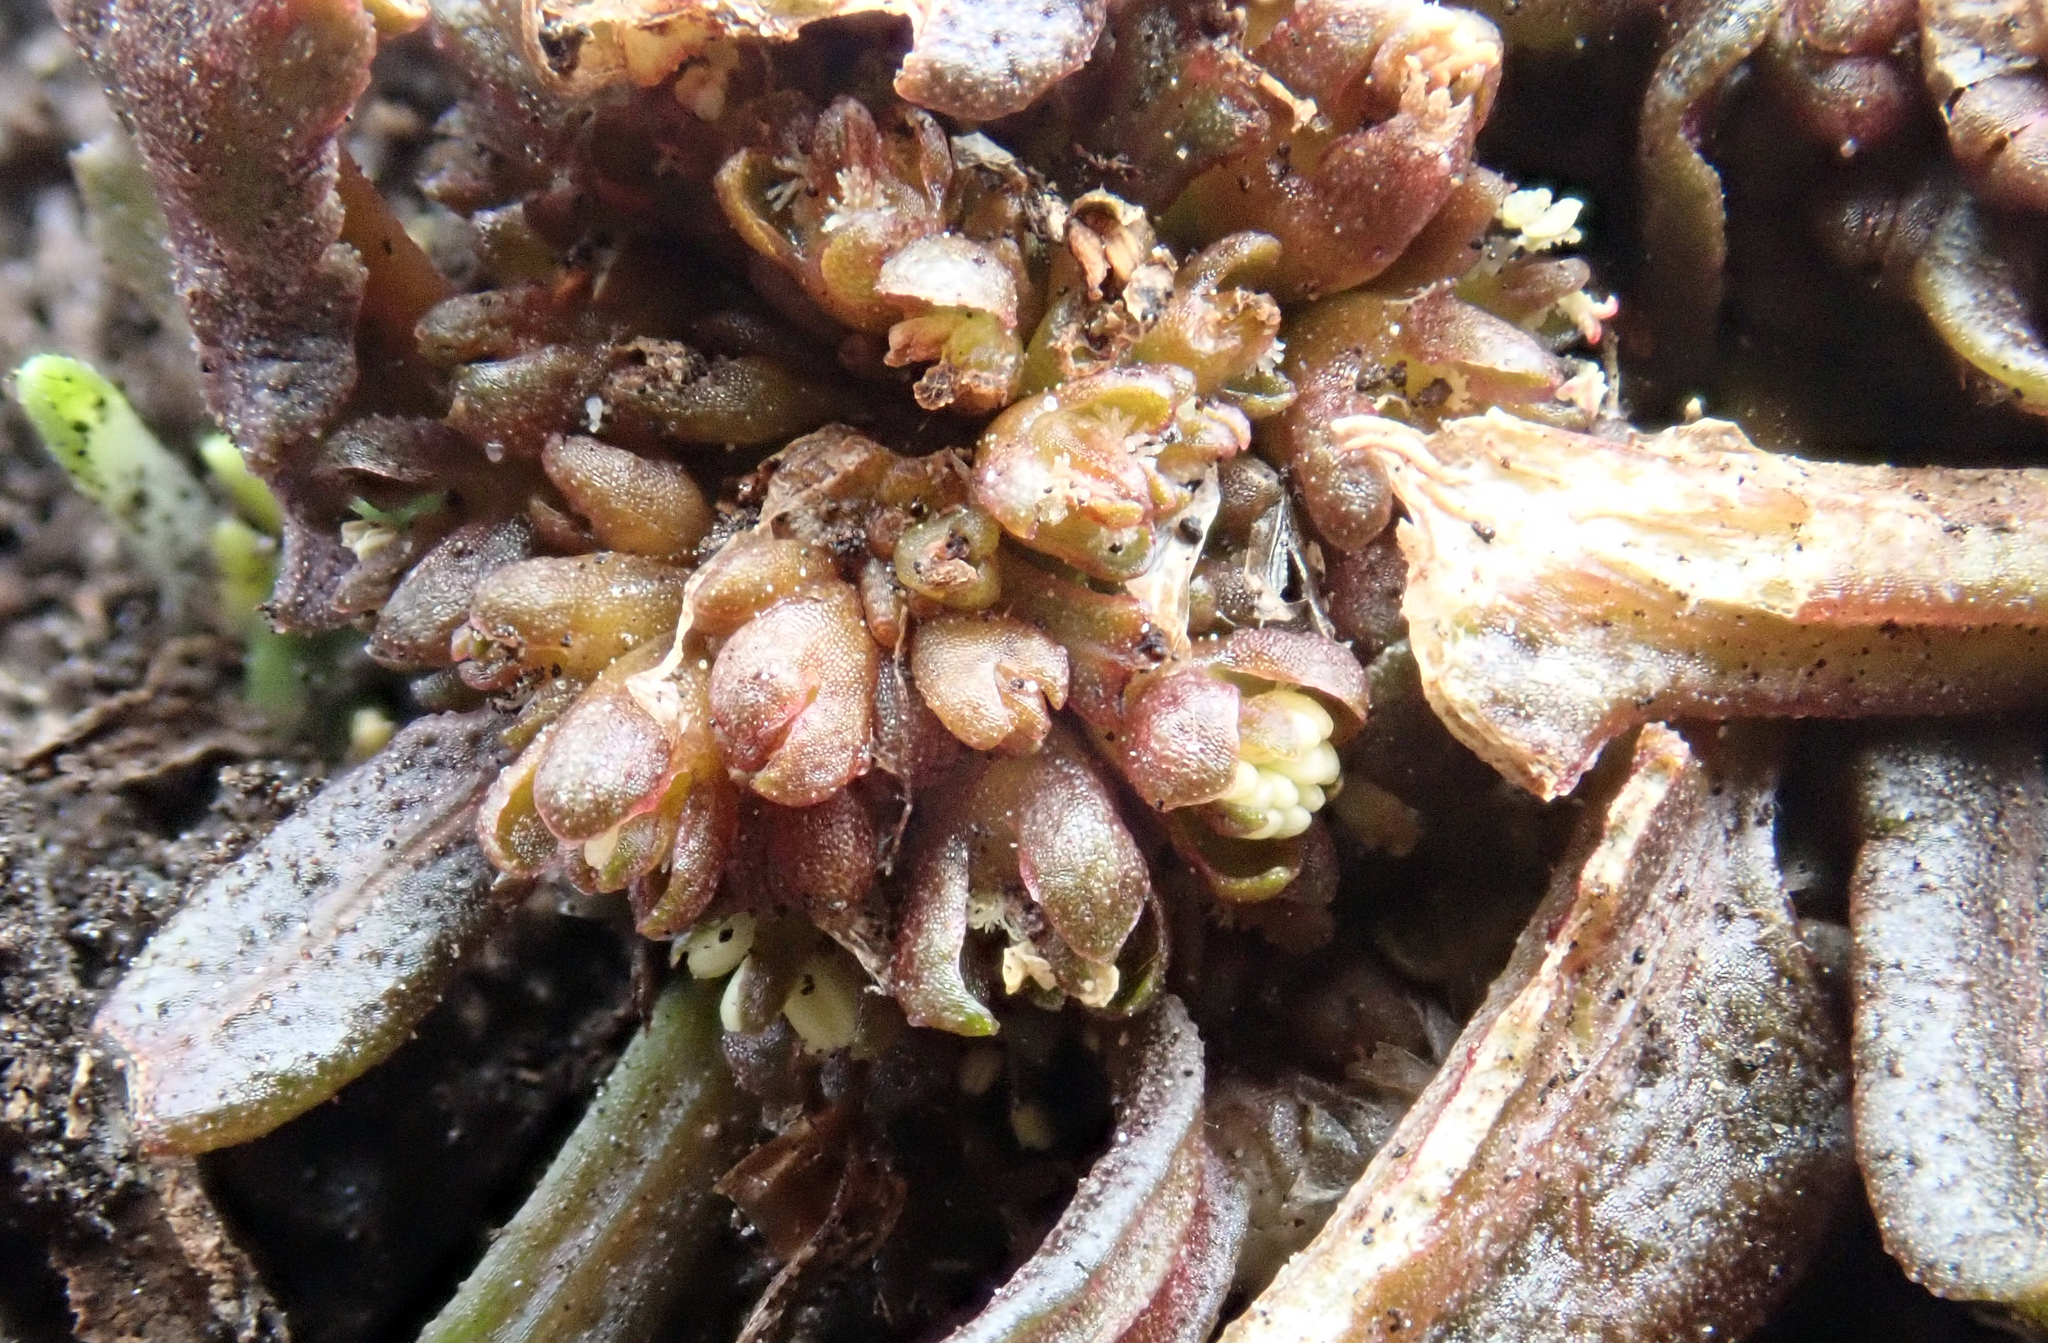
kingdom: Plantae
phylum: Tracheophyta
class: Magnoliopsida
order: Caryophyllales
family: Polygonaceae
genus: Rumex
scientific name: Rumex neglectus
